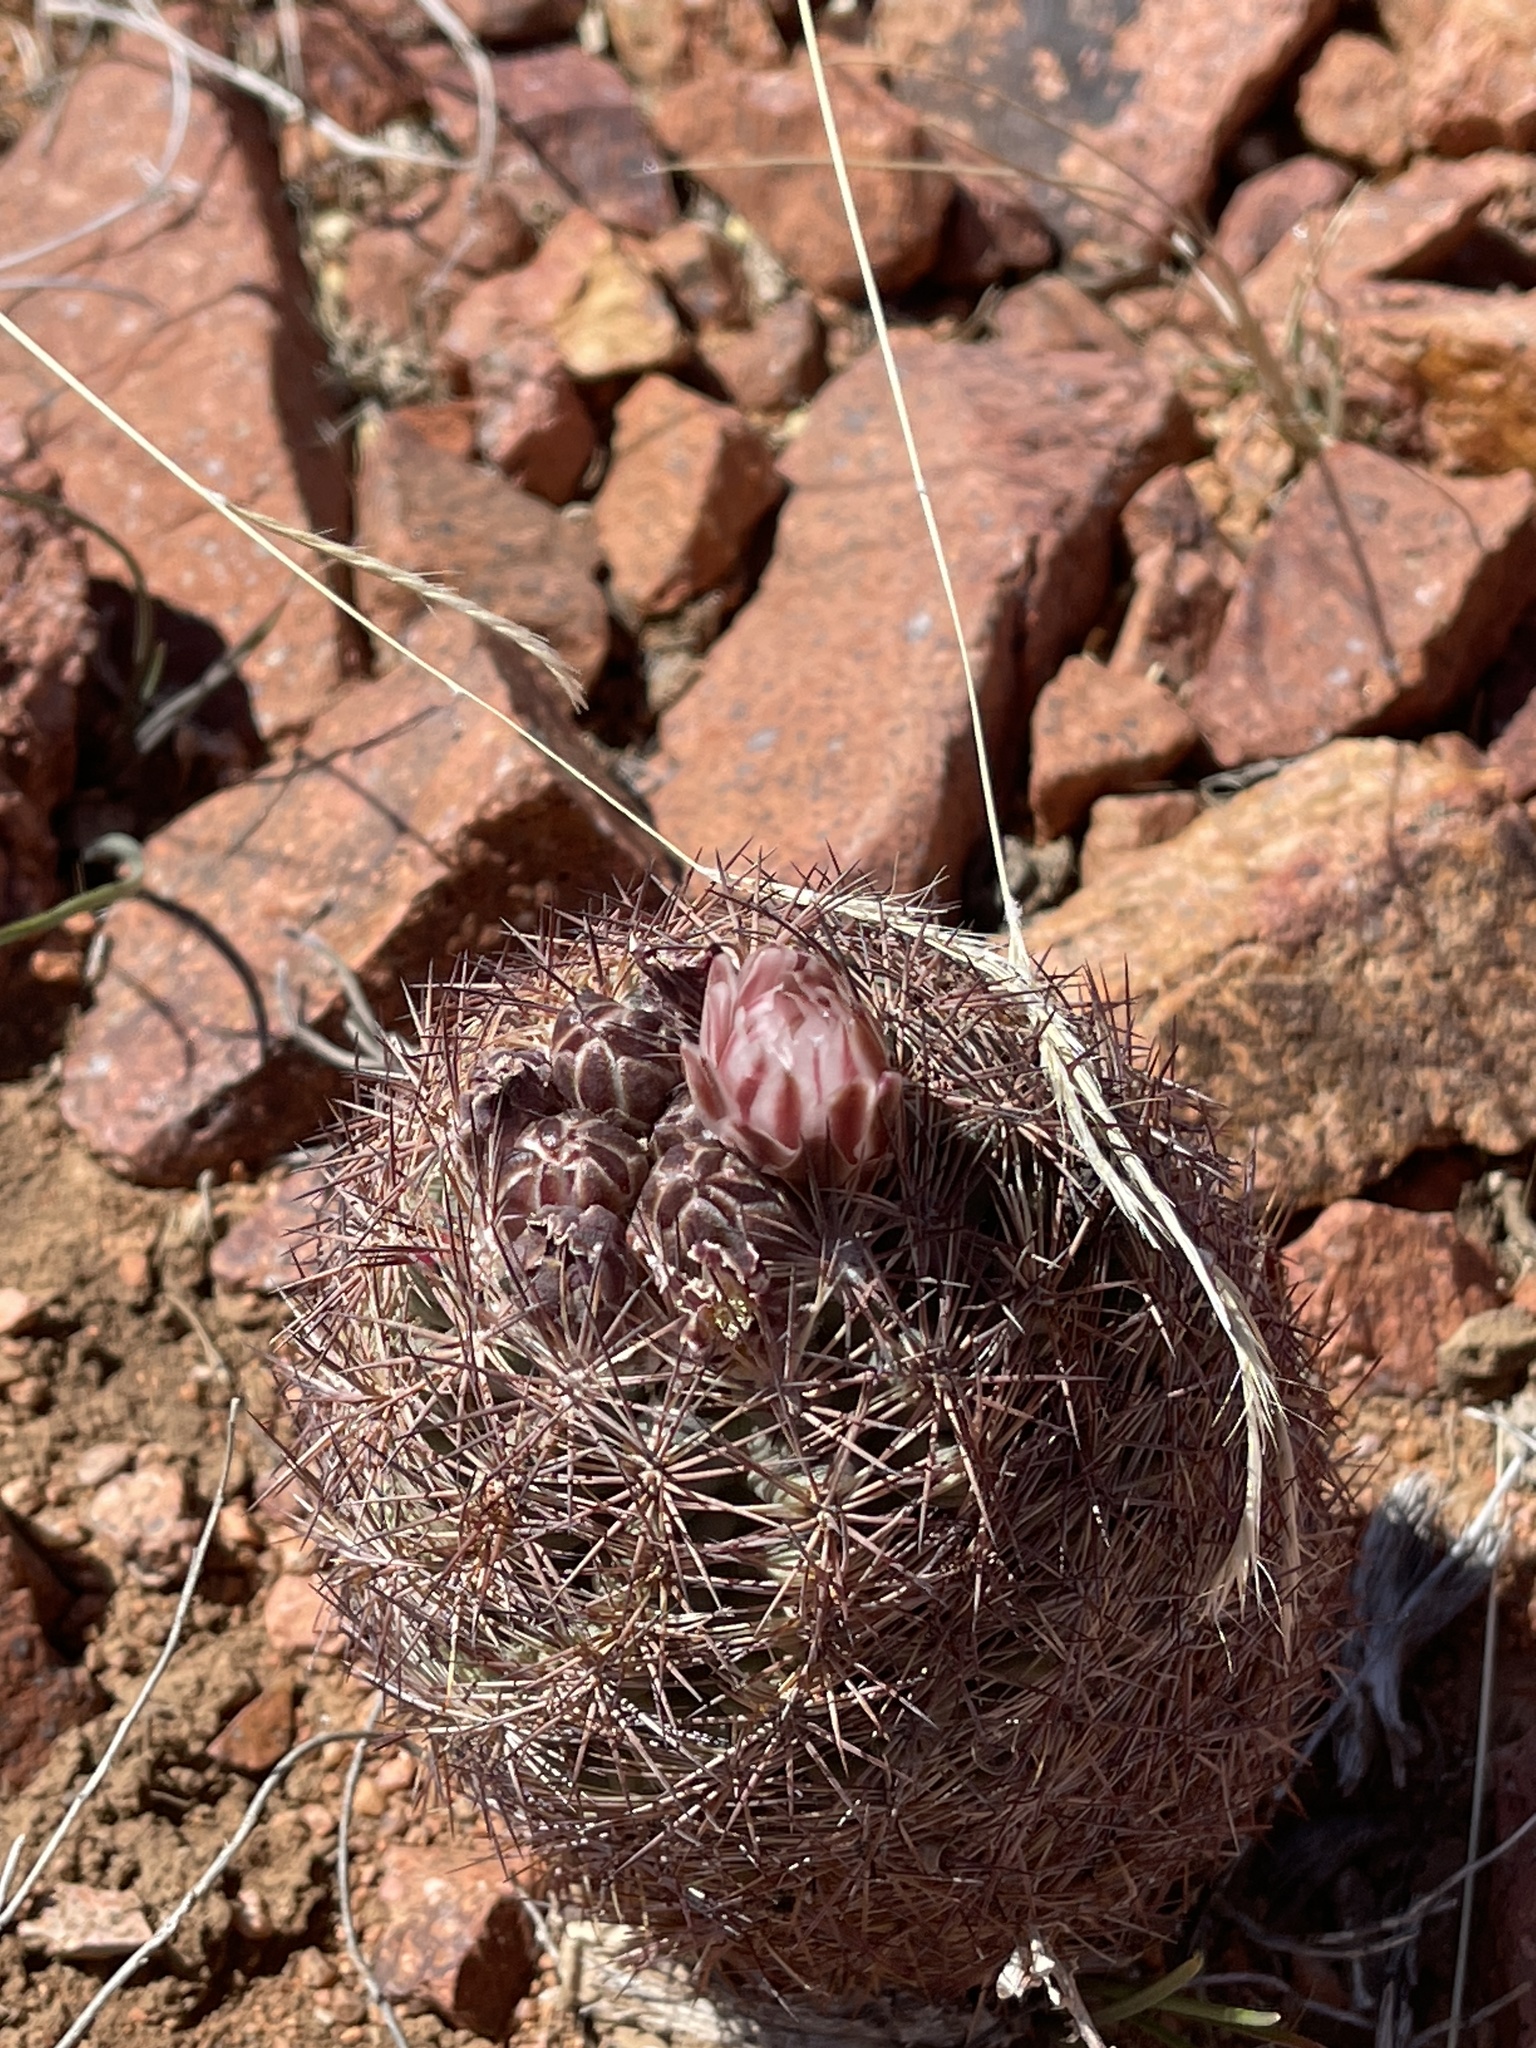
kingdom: Plantae
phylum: Tracheophyta
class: Magnoliopsida
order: Caryophyllales
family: Cactaceae
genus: Sclerocactus
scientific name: Sclerocactus intertextus
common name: White fish-hook cactus
